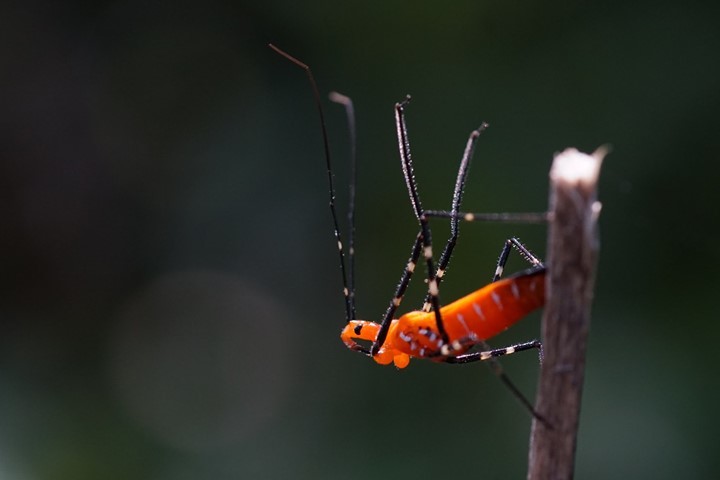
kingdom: Animalia
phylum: Arthropoda
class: Insecta
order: Hemiptera
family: Reduviidae
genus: Zelus
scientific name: Zelus longipes
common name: Milkweed assassin bug
